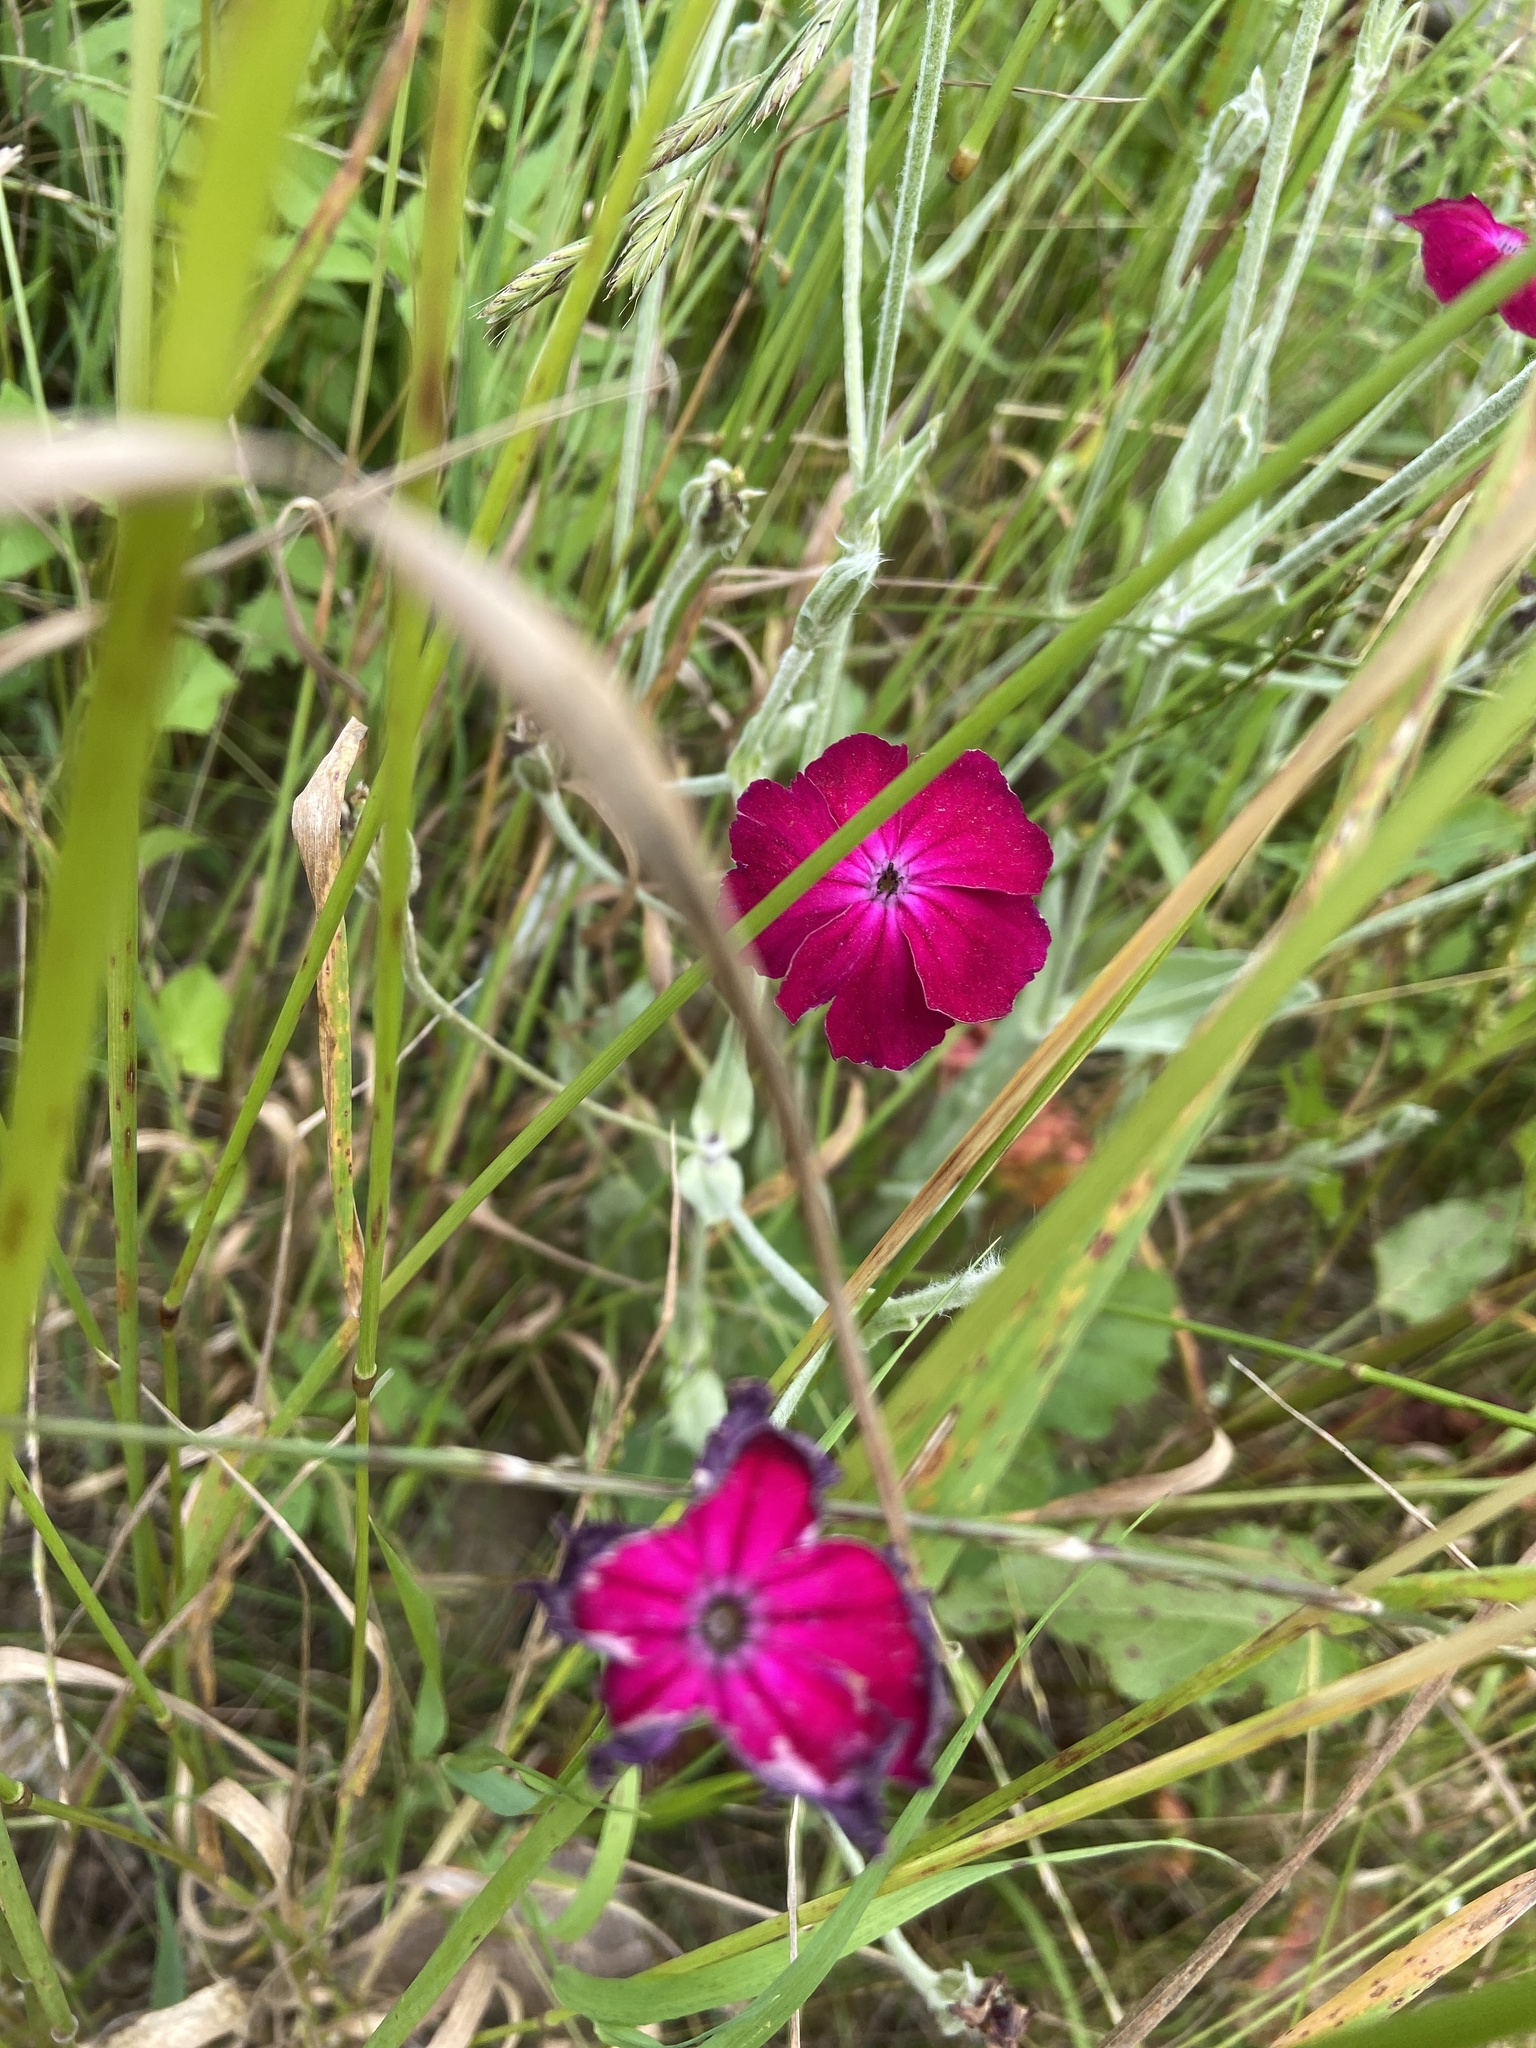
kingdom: Plantae
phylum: Tracheophyta
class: Magnoliopsida
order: Caryophyllales
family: Caryophyllaceae
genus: Silene
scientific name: Silene coronaria
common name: Rose campion
